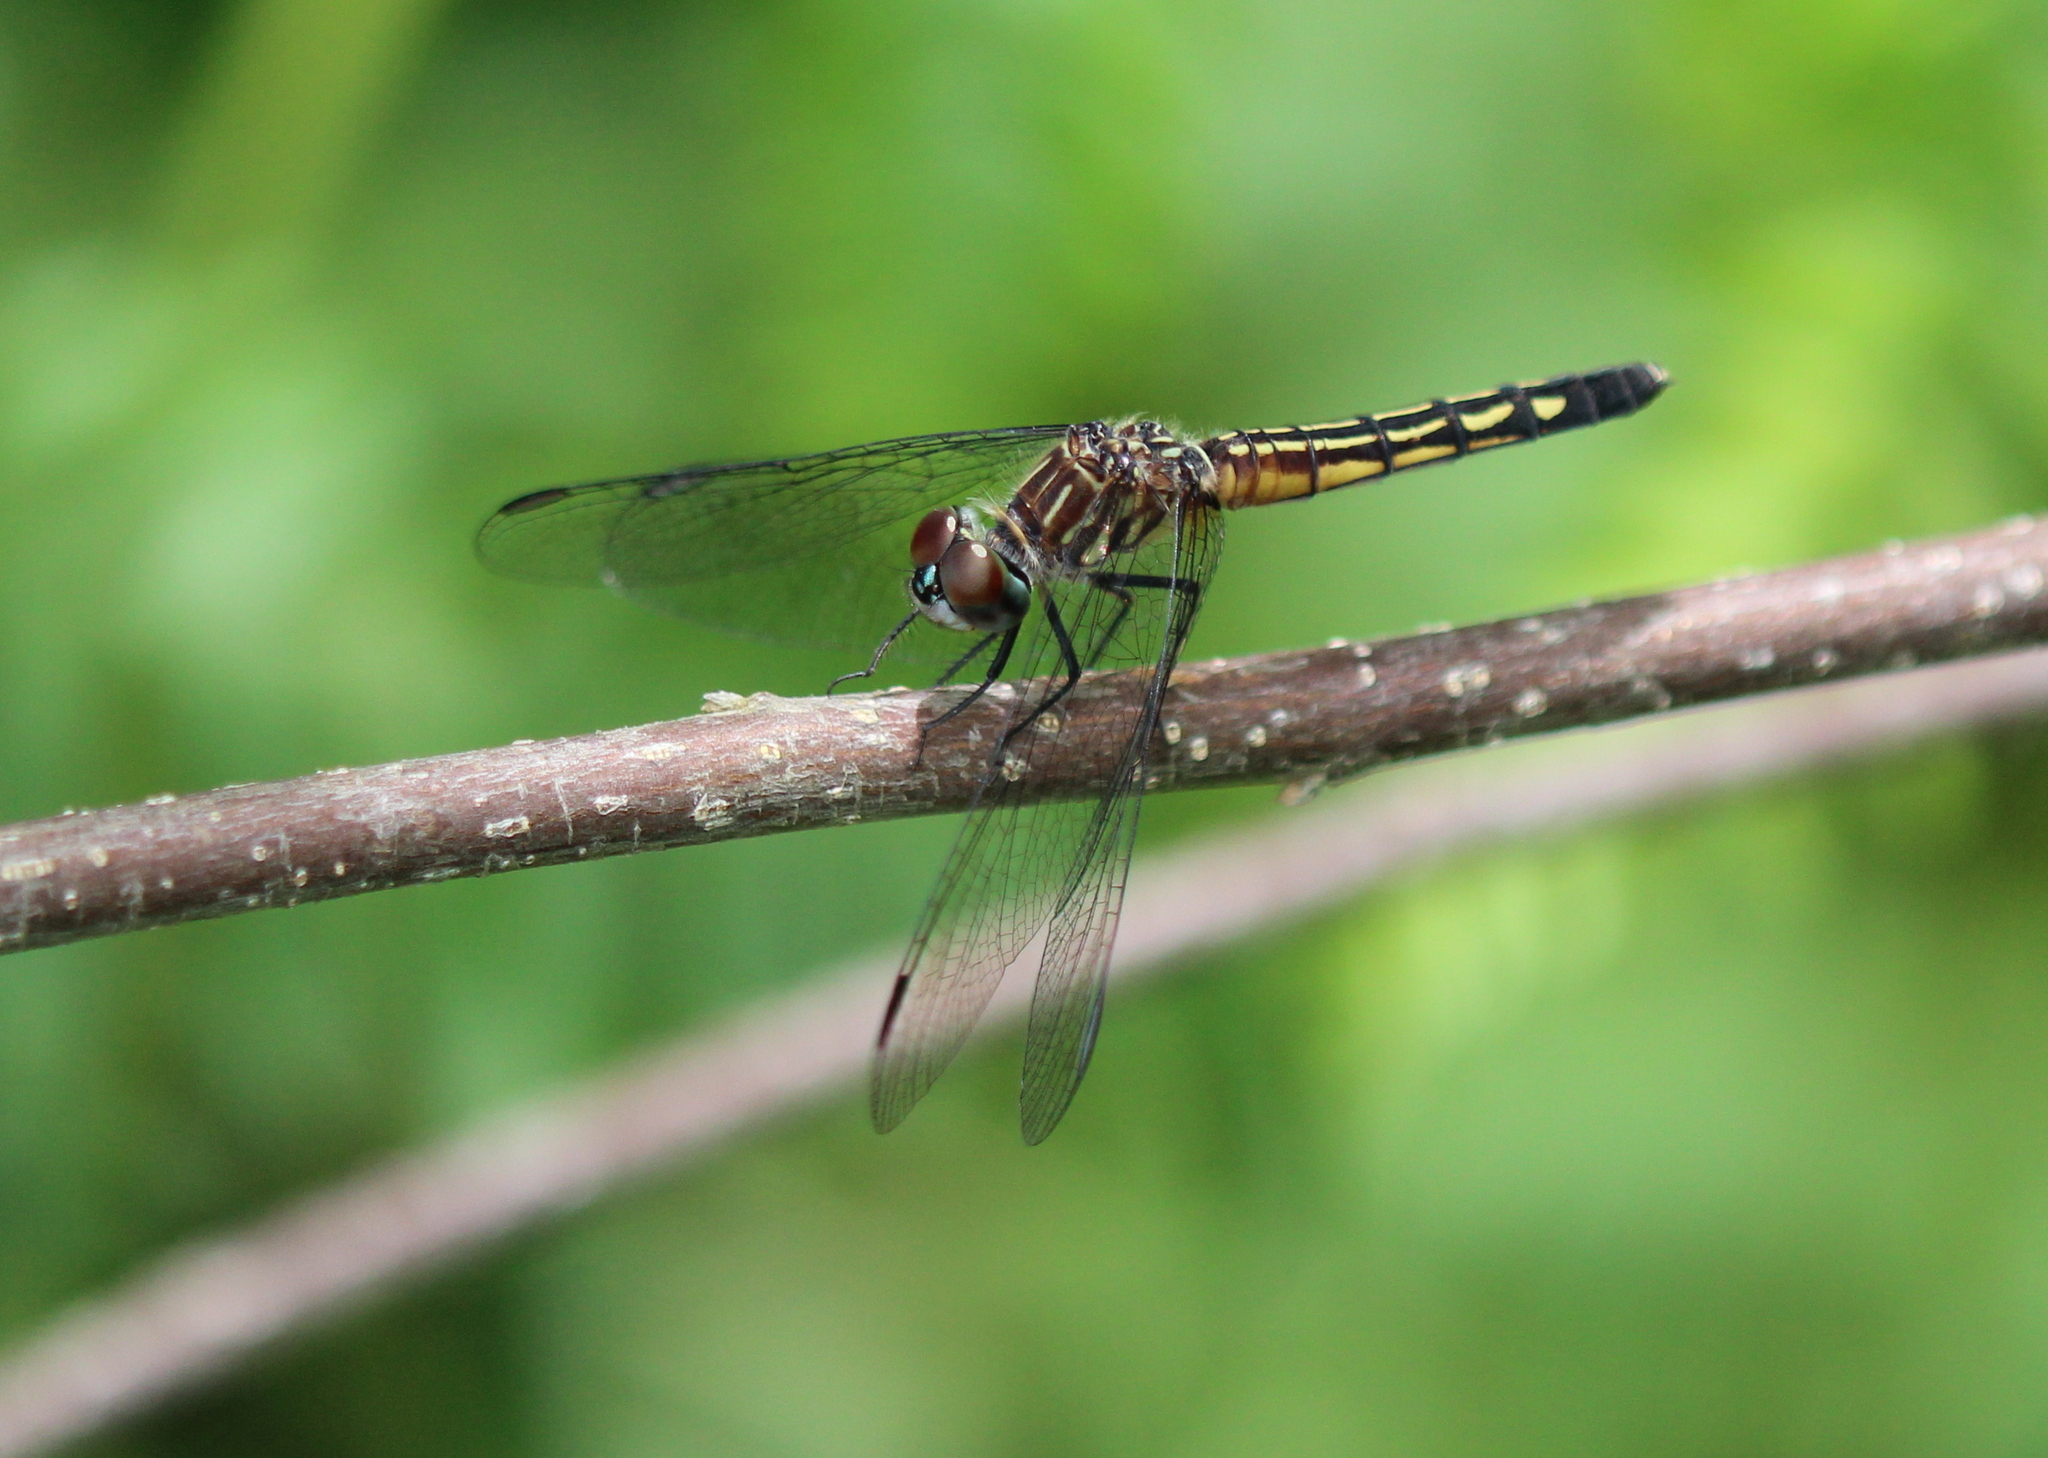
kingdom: Animalia
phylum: Arthropoda
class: Insecta
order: Odonata
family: Libellulidae
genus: Pachydiplax
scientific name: Pachydiplax longipennis
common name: Blue dasher
